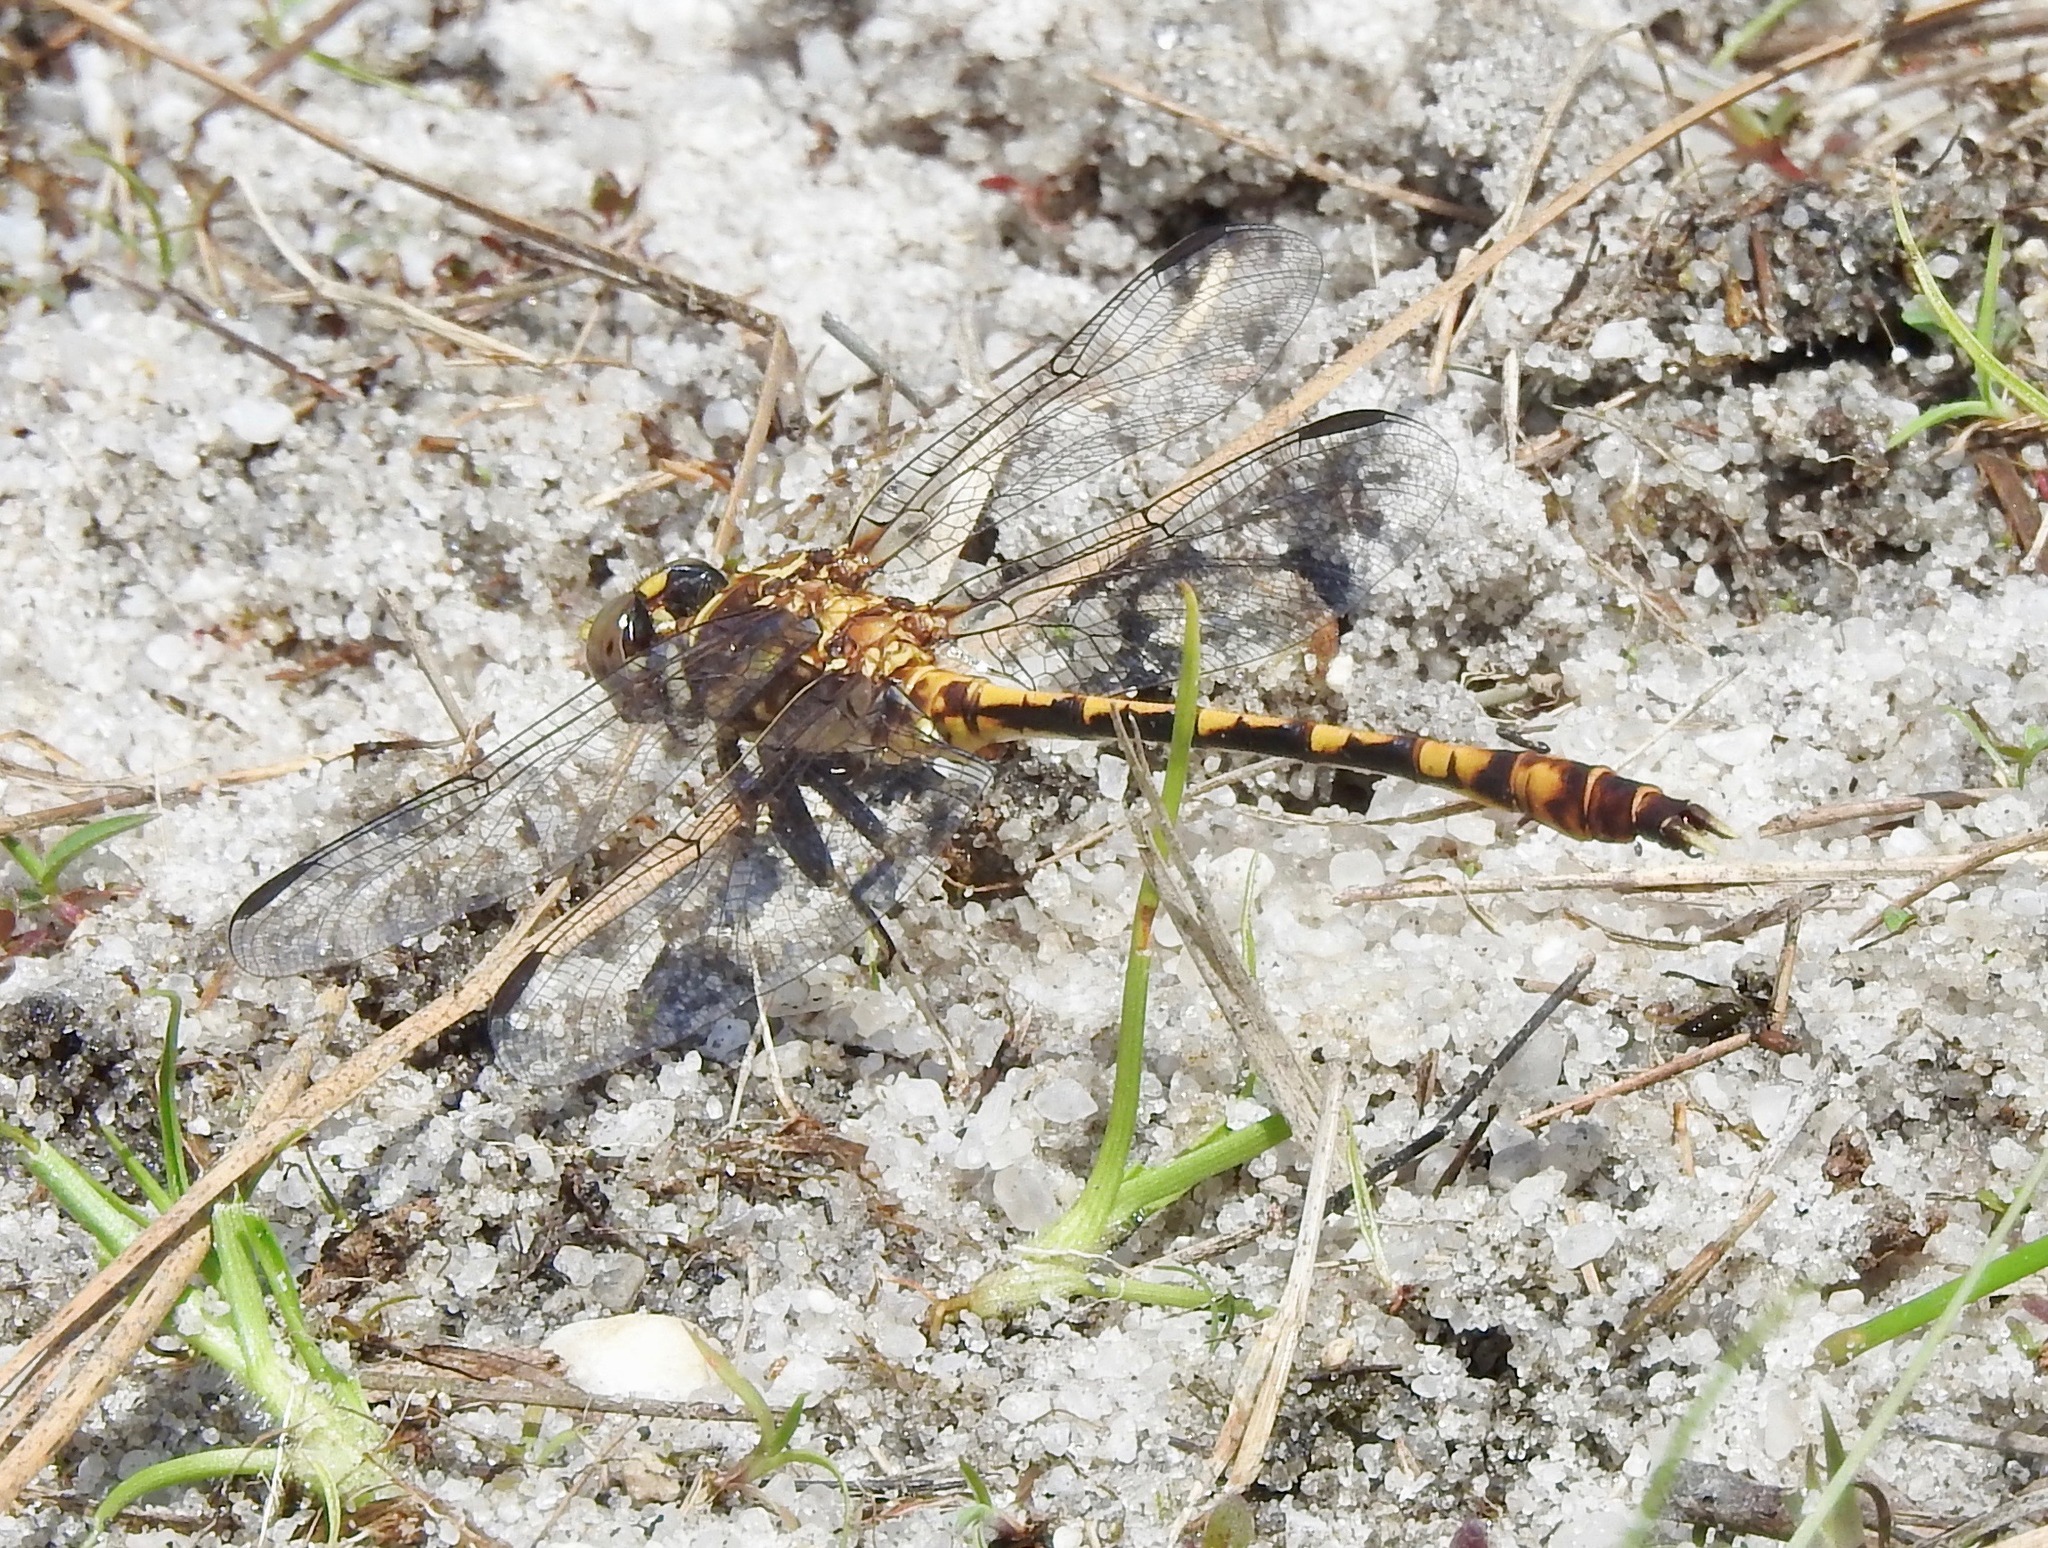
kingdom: Animalia
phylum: Arthropoda
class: Insecta
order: Odonata
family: Gomphidae
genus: Progomphus
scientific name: Progomphus alachuensis
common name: Tawny sanddragon
